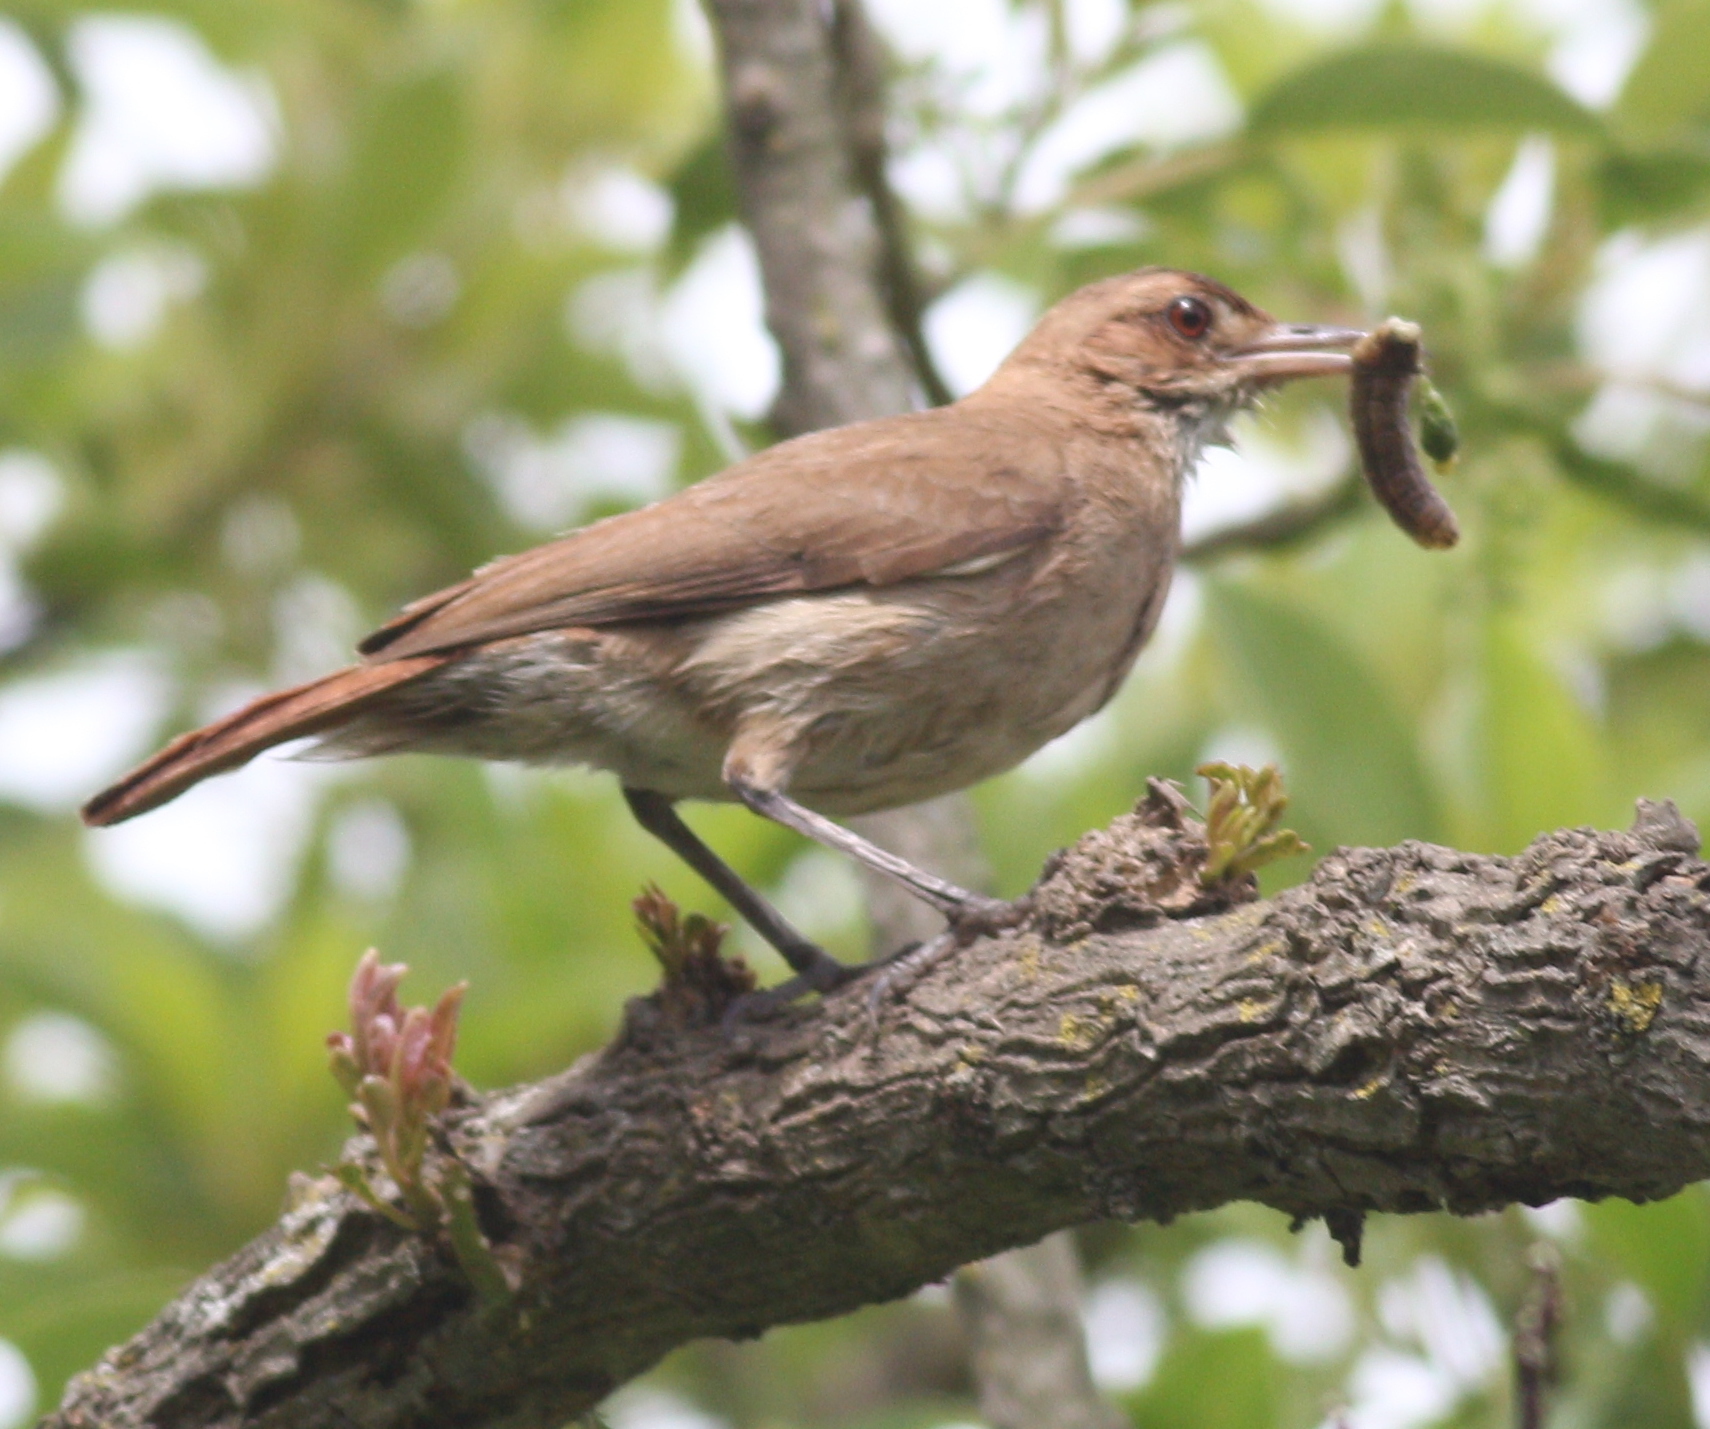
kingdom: Animalia
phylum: Chordata
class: Aves
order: Passeriformes
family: Furnariidae
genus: Furnarius
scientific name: Furnarius rufus
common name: Rufous hornero
